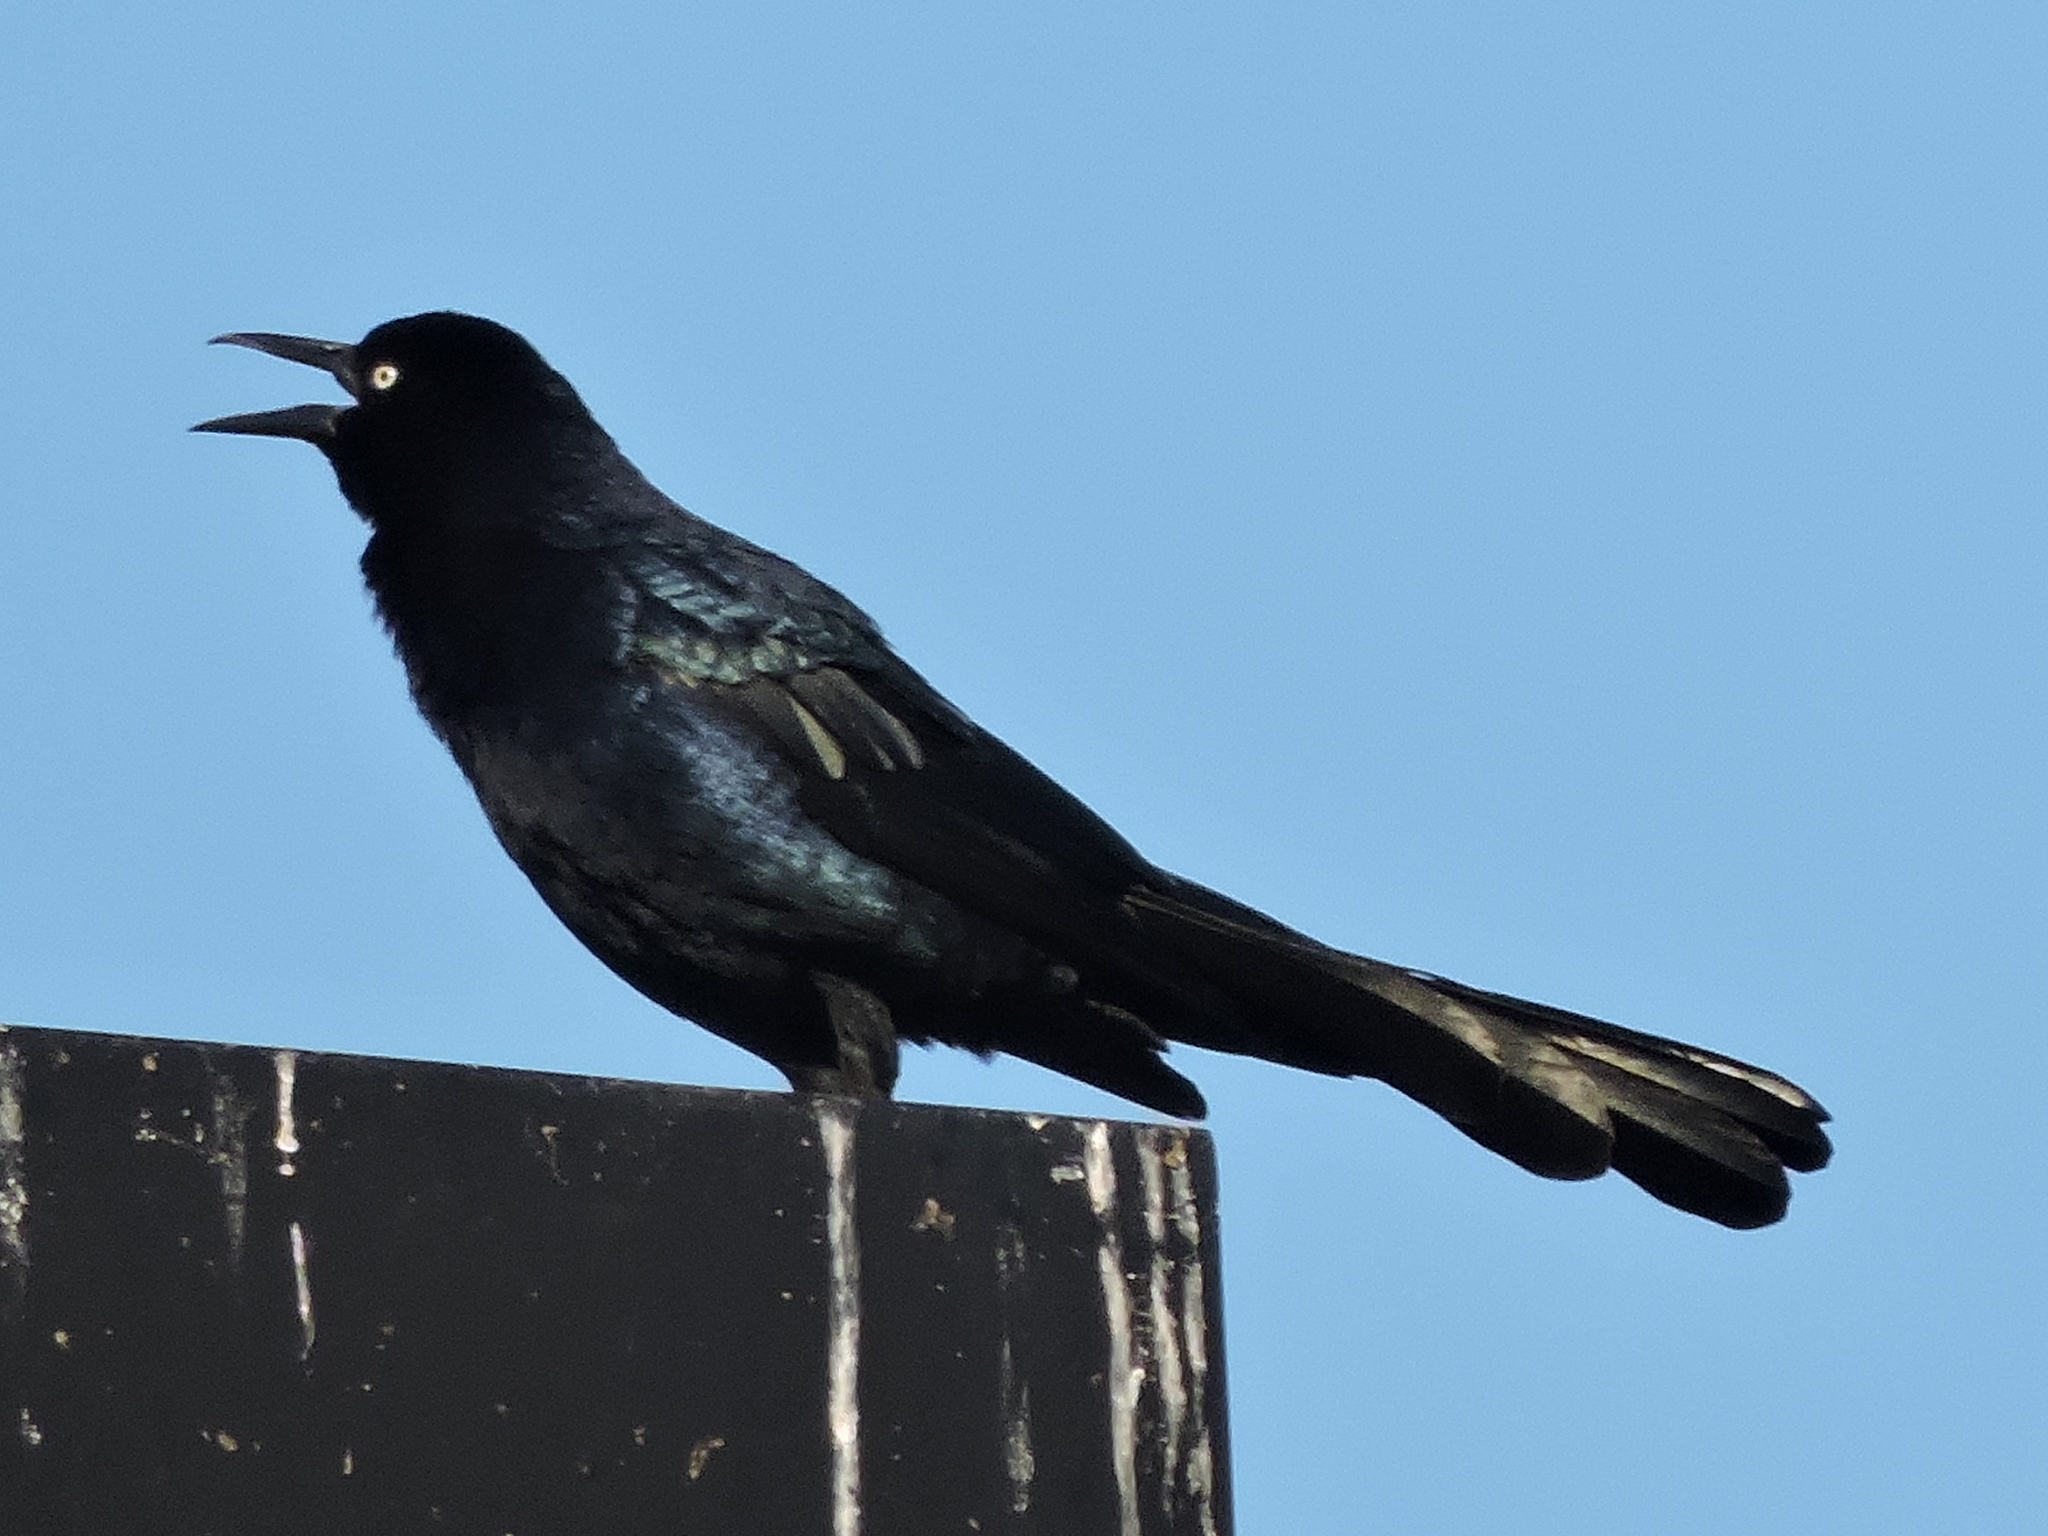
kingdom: Animalia
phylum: Chordata
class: Aves
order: Passeriformes
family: Icteridae
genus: Quiscalus
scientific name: Quiscalus mexicanus
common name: Great-tailed grackle
